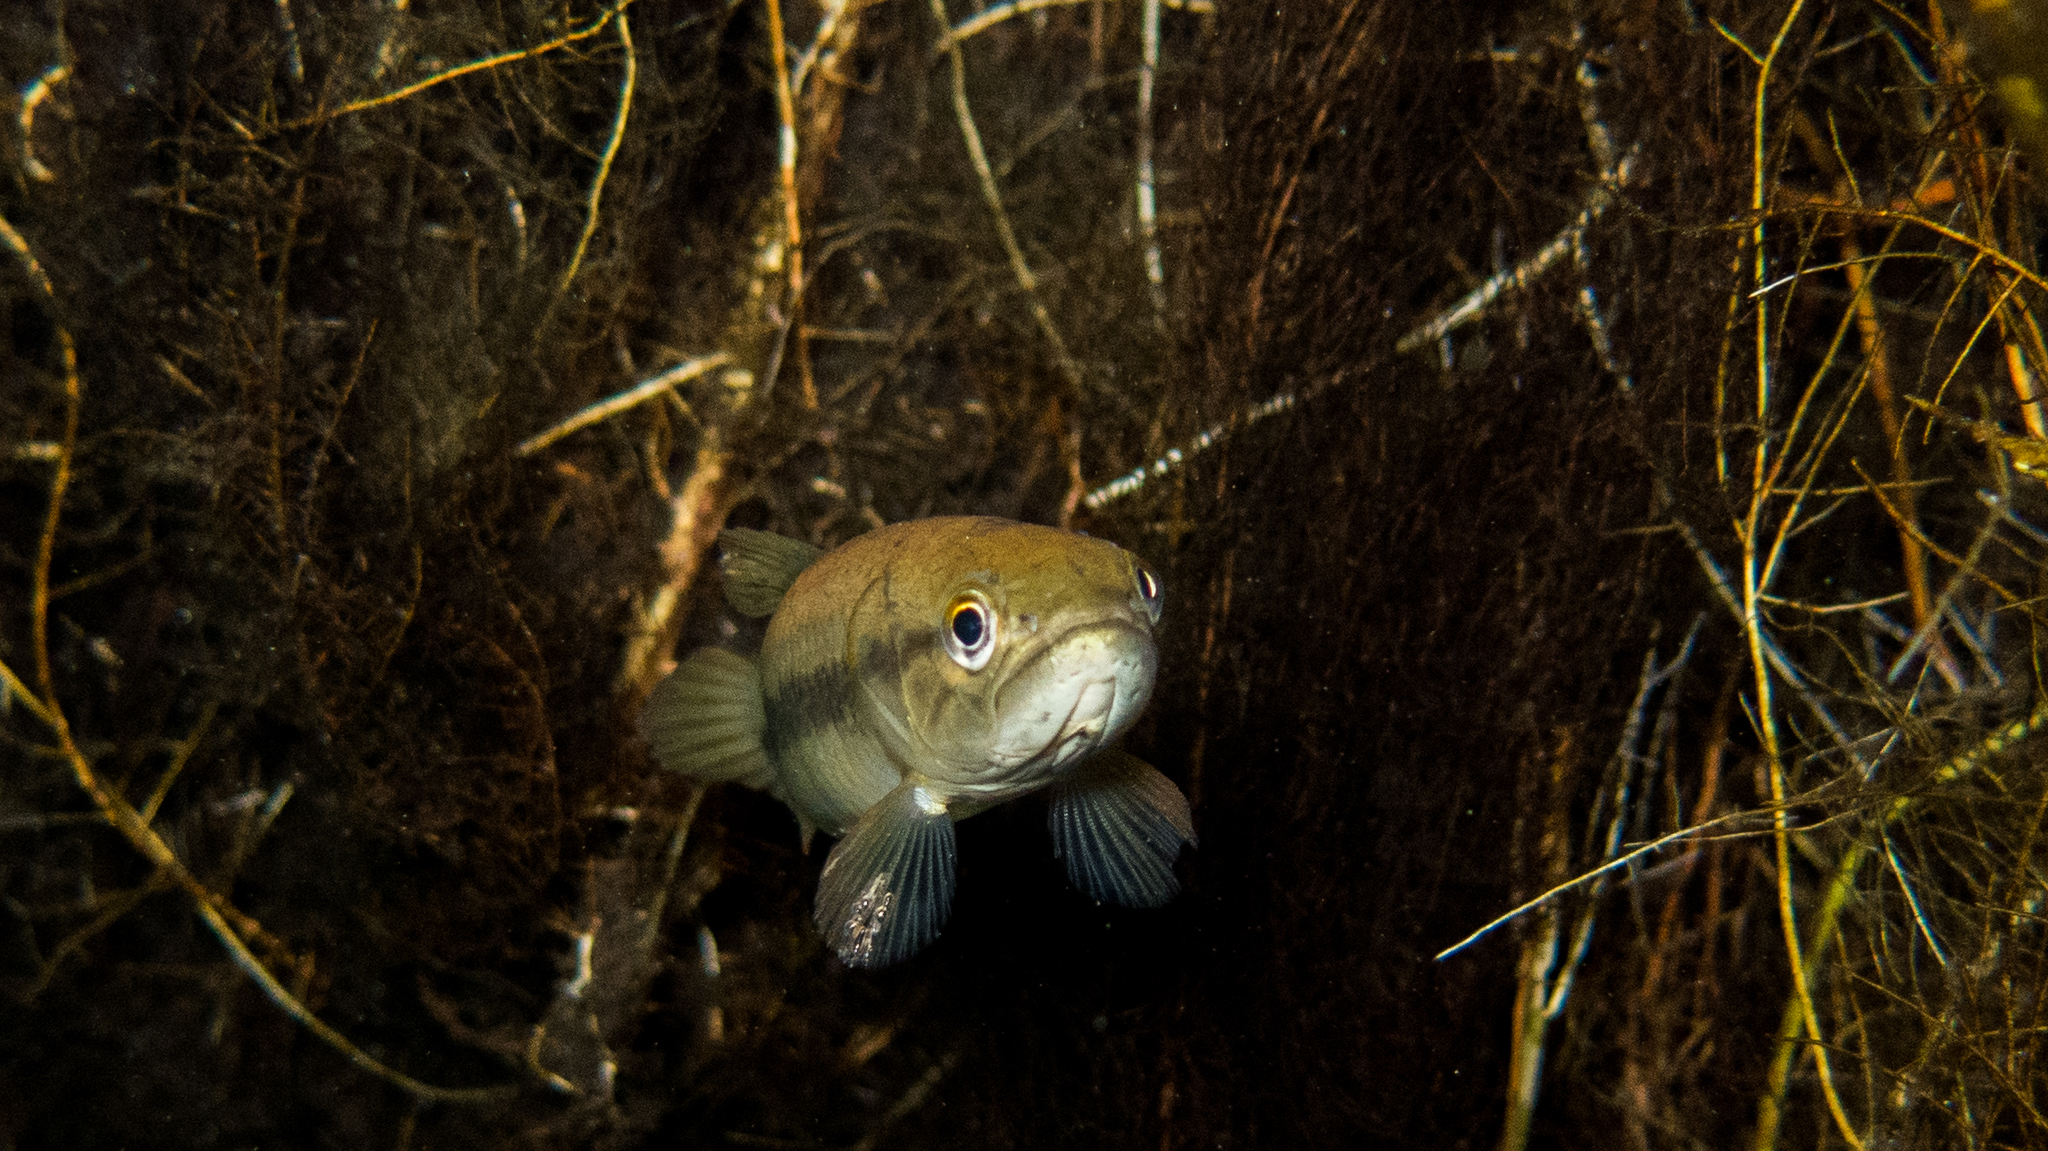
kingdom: Animalia
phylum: Chordata
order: Characiformes
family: Erythrinidae
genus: Hoplerythrinus
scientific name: Hoplerythrinus unitaeniatus
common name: Aimara
